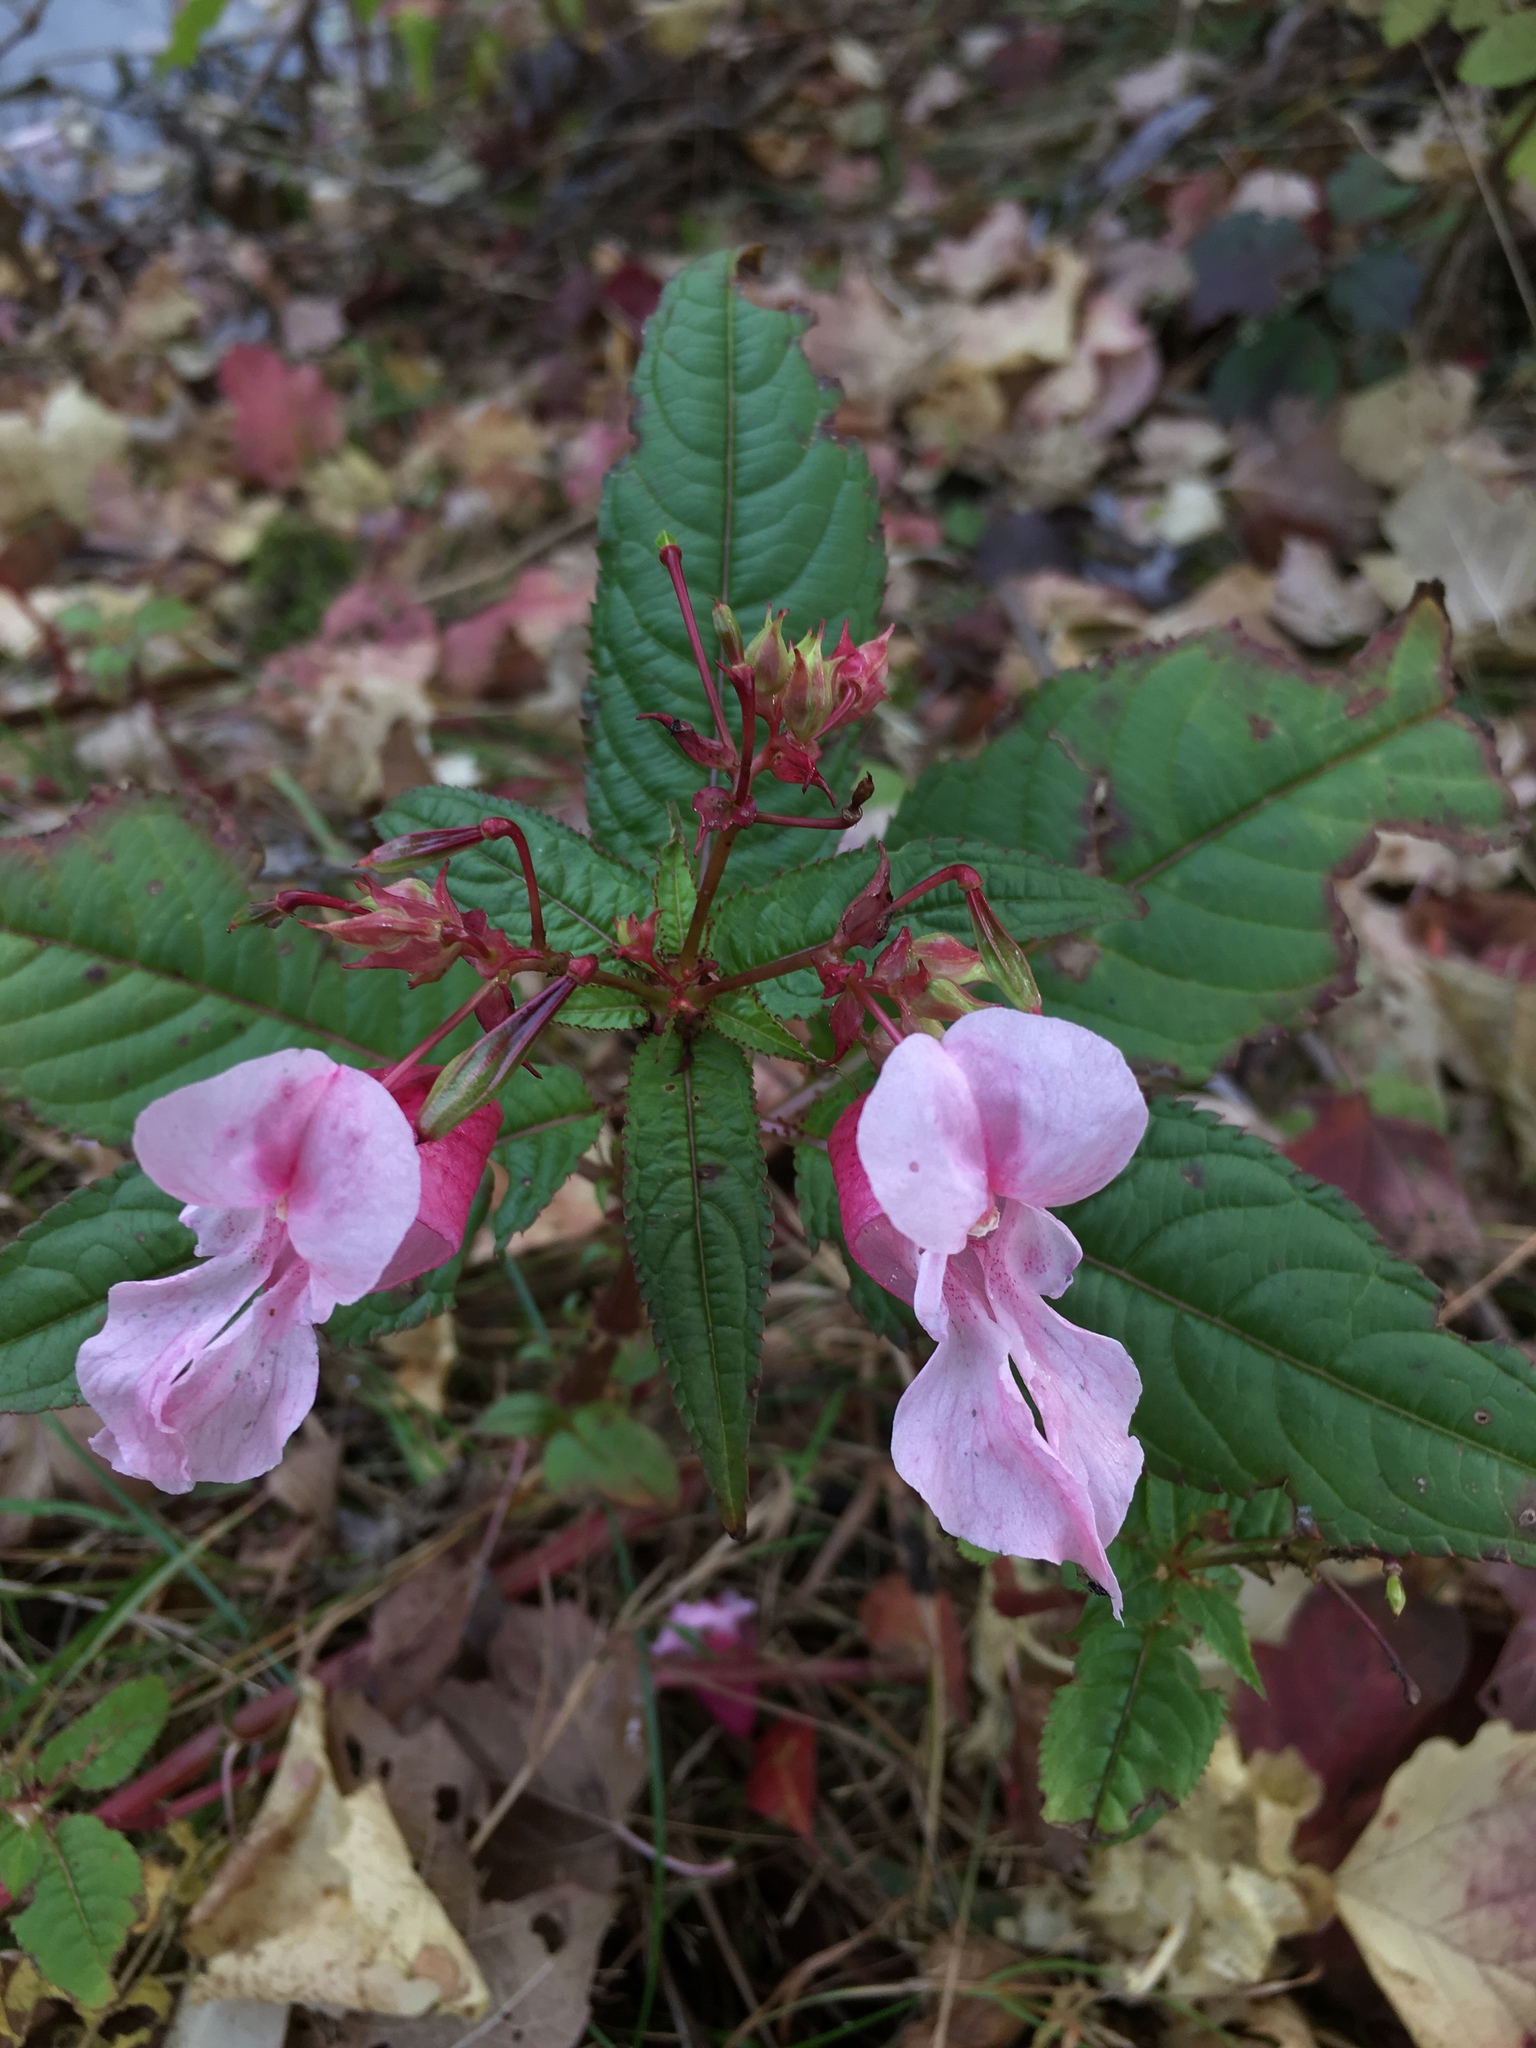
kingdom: Plantae
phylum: Tracheophyta
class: Magnoliopsida
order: Ericales
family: Balsaminaceae
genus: Impatiens
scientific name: Impatiens glandulifera
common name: Himalayan balsam
